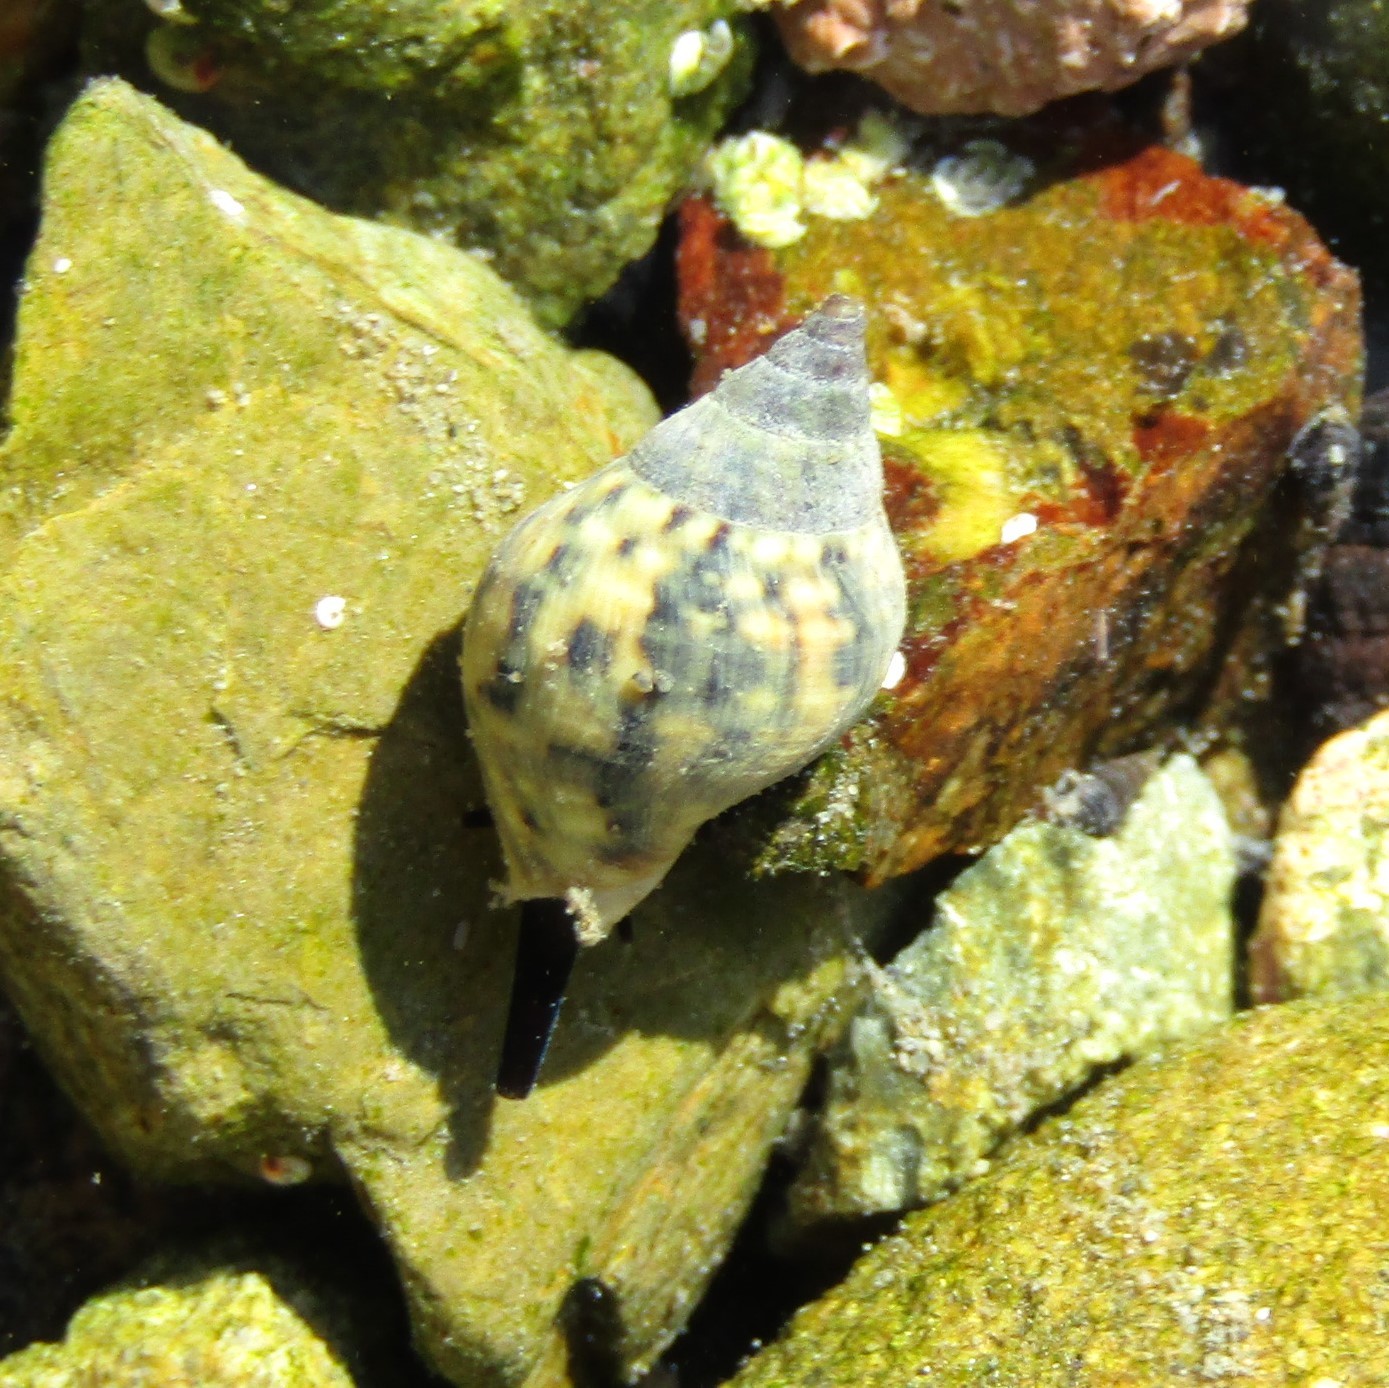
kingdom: Animalia
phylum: Mollusca
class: Gastropoda
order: Neogastropoda
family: Cominellidae
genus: Cominella
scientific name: Cominella maculosa
